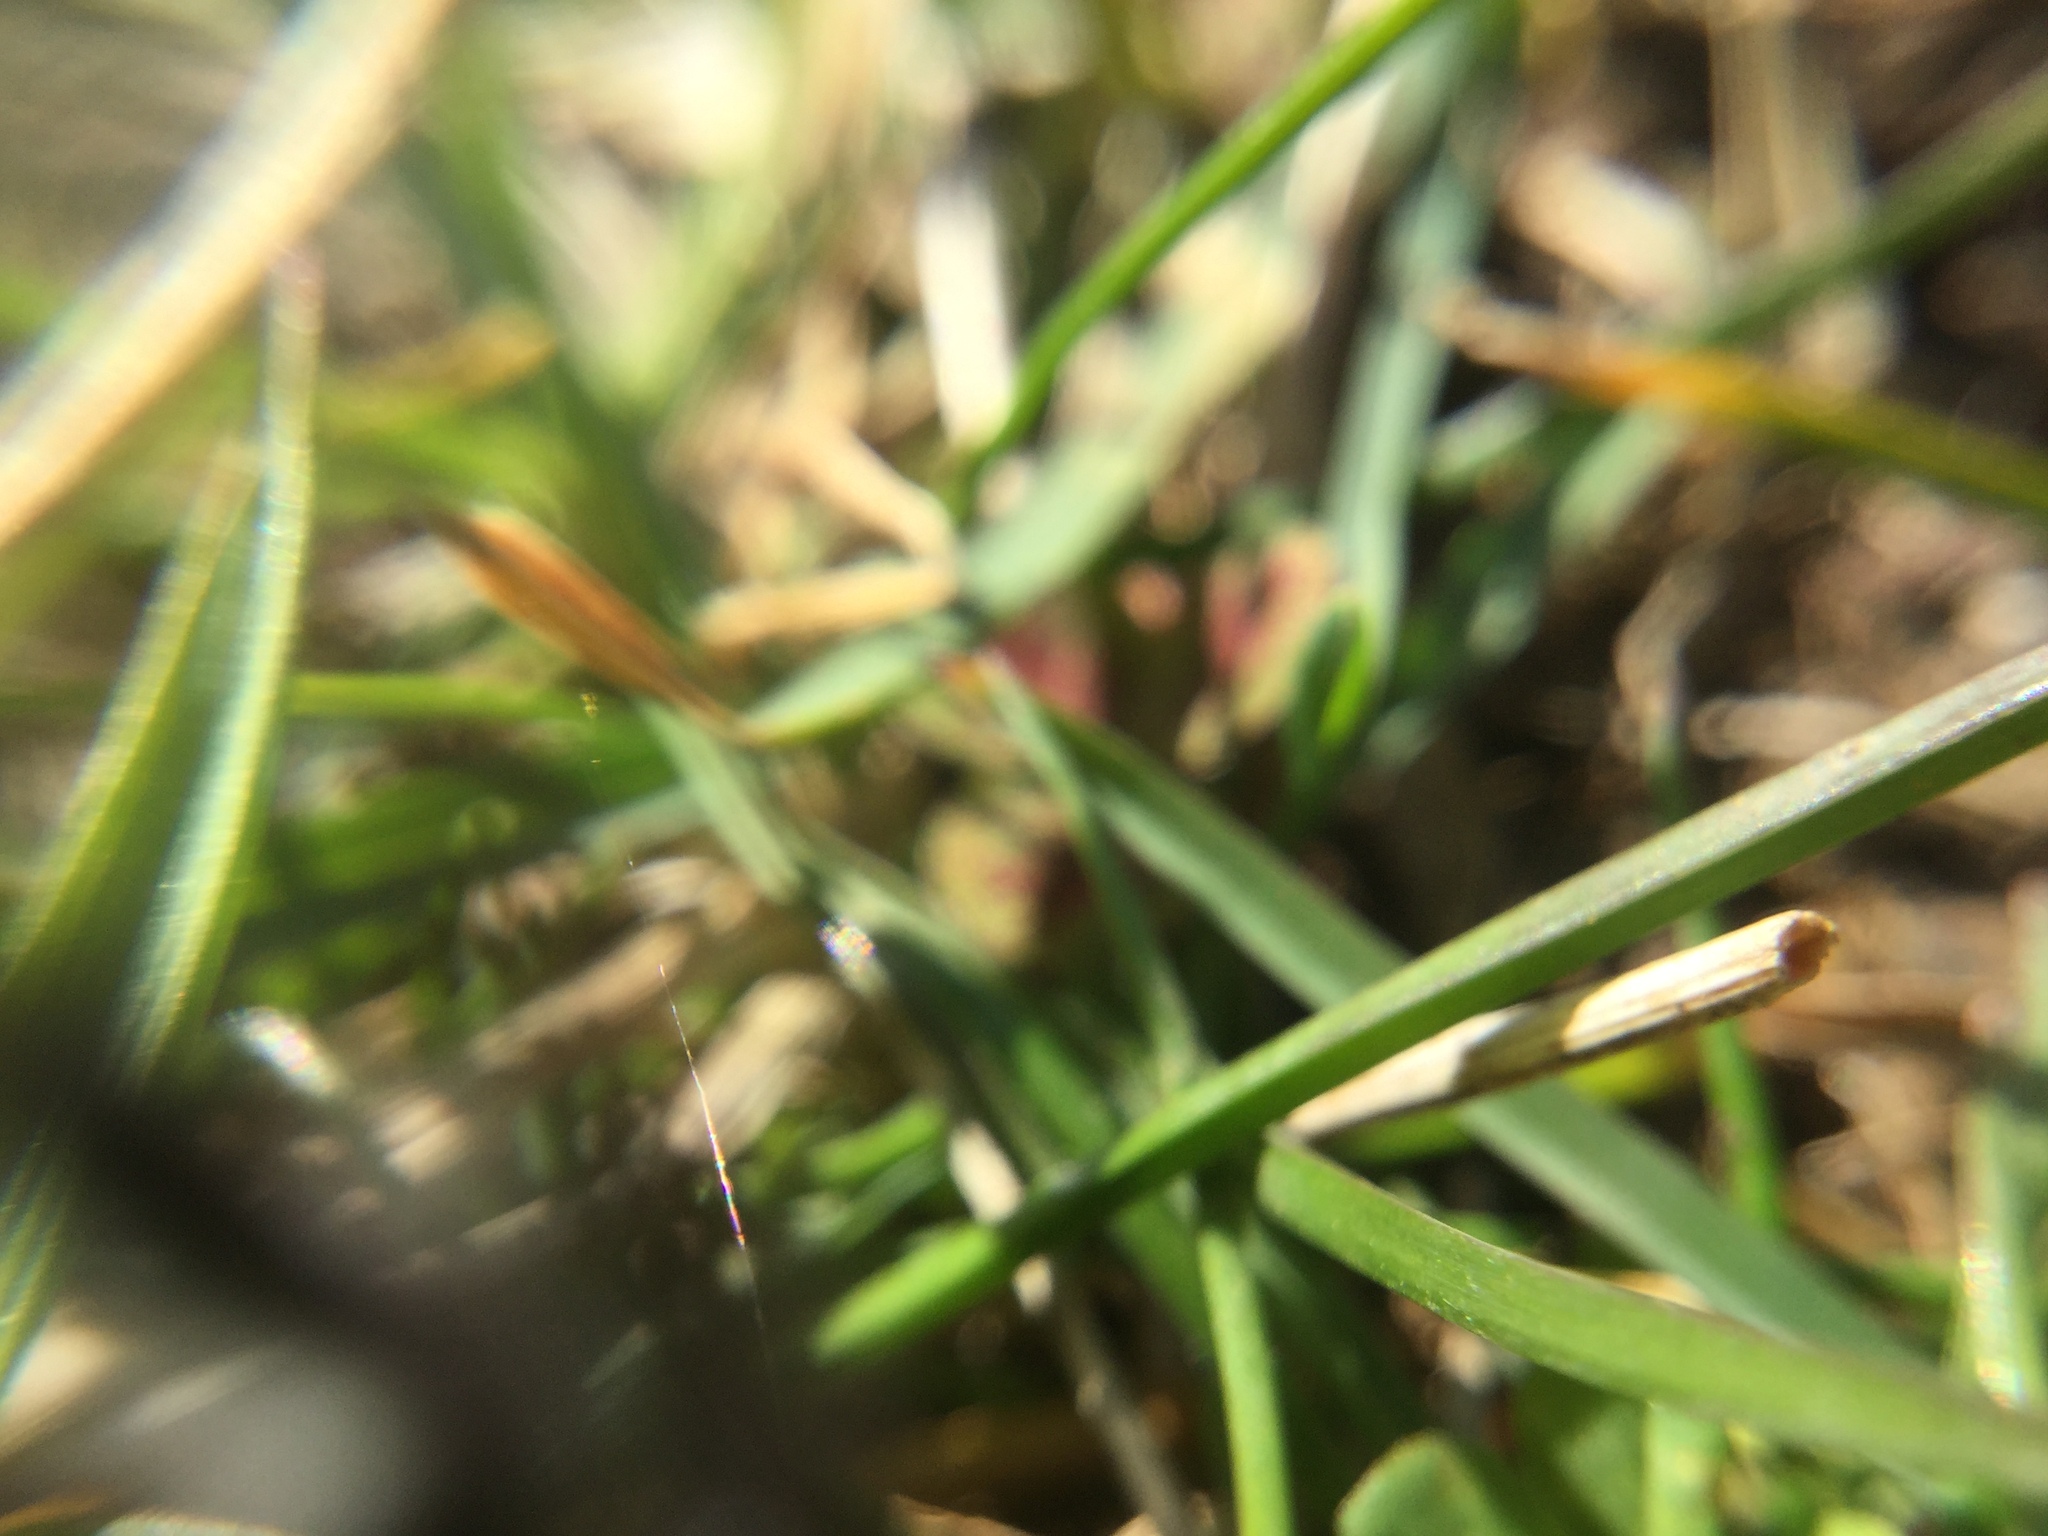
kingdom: Animalia
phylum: Arthropoda
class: Arachnida
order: Araneae
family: Salticidae
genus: Phidippus
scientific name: Phidippus audax
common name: Bold jumper
